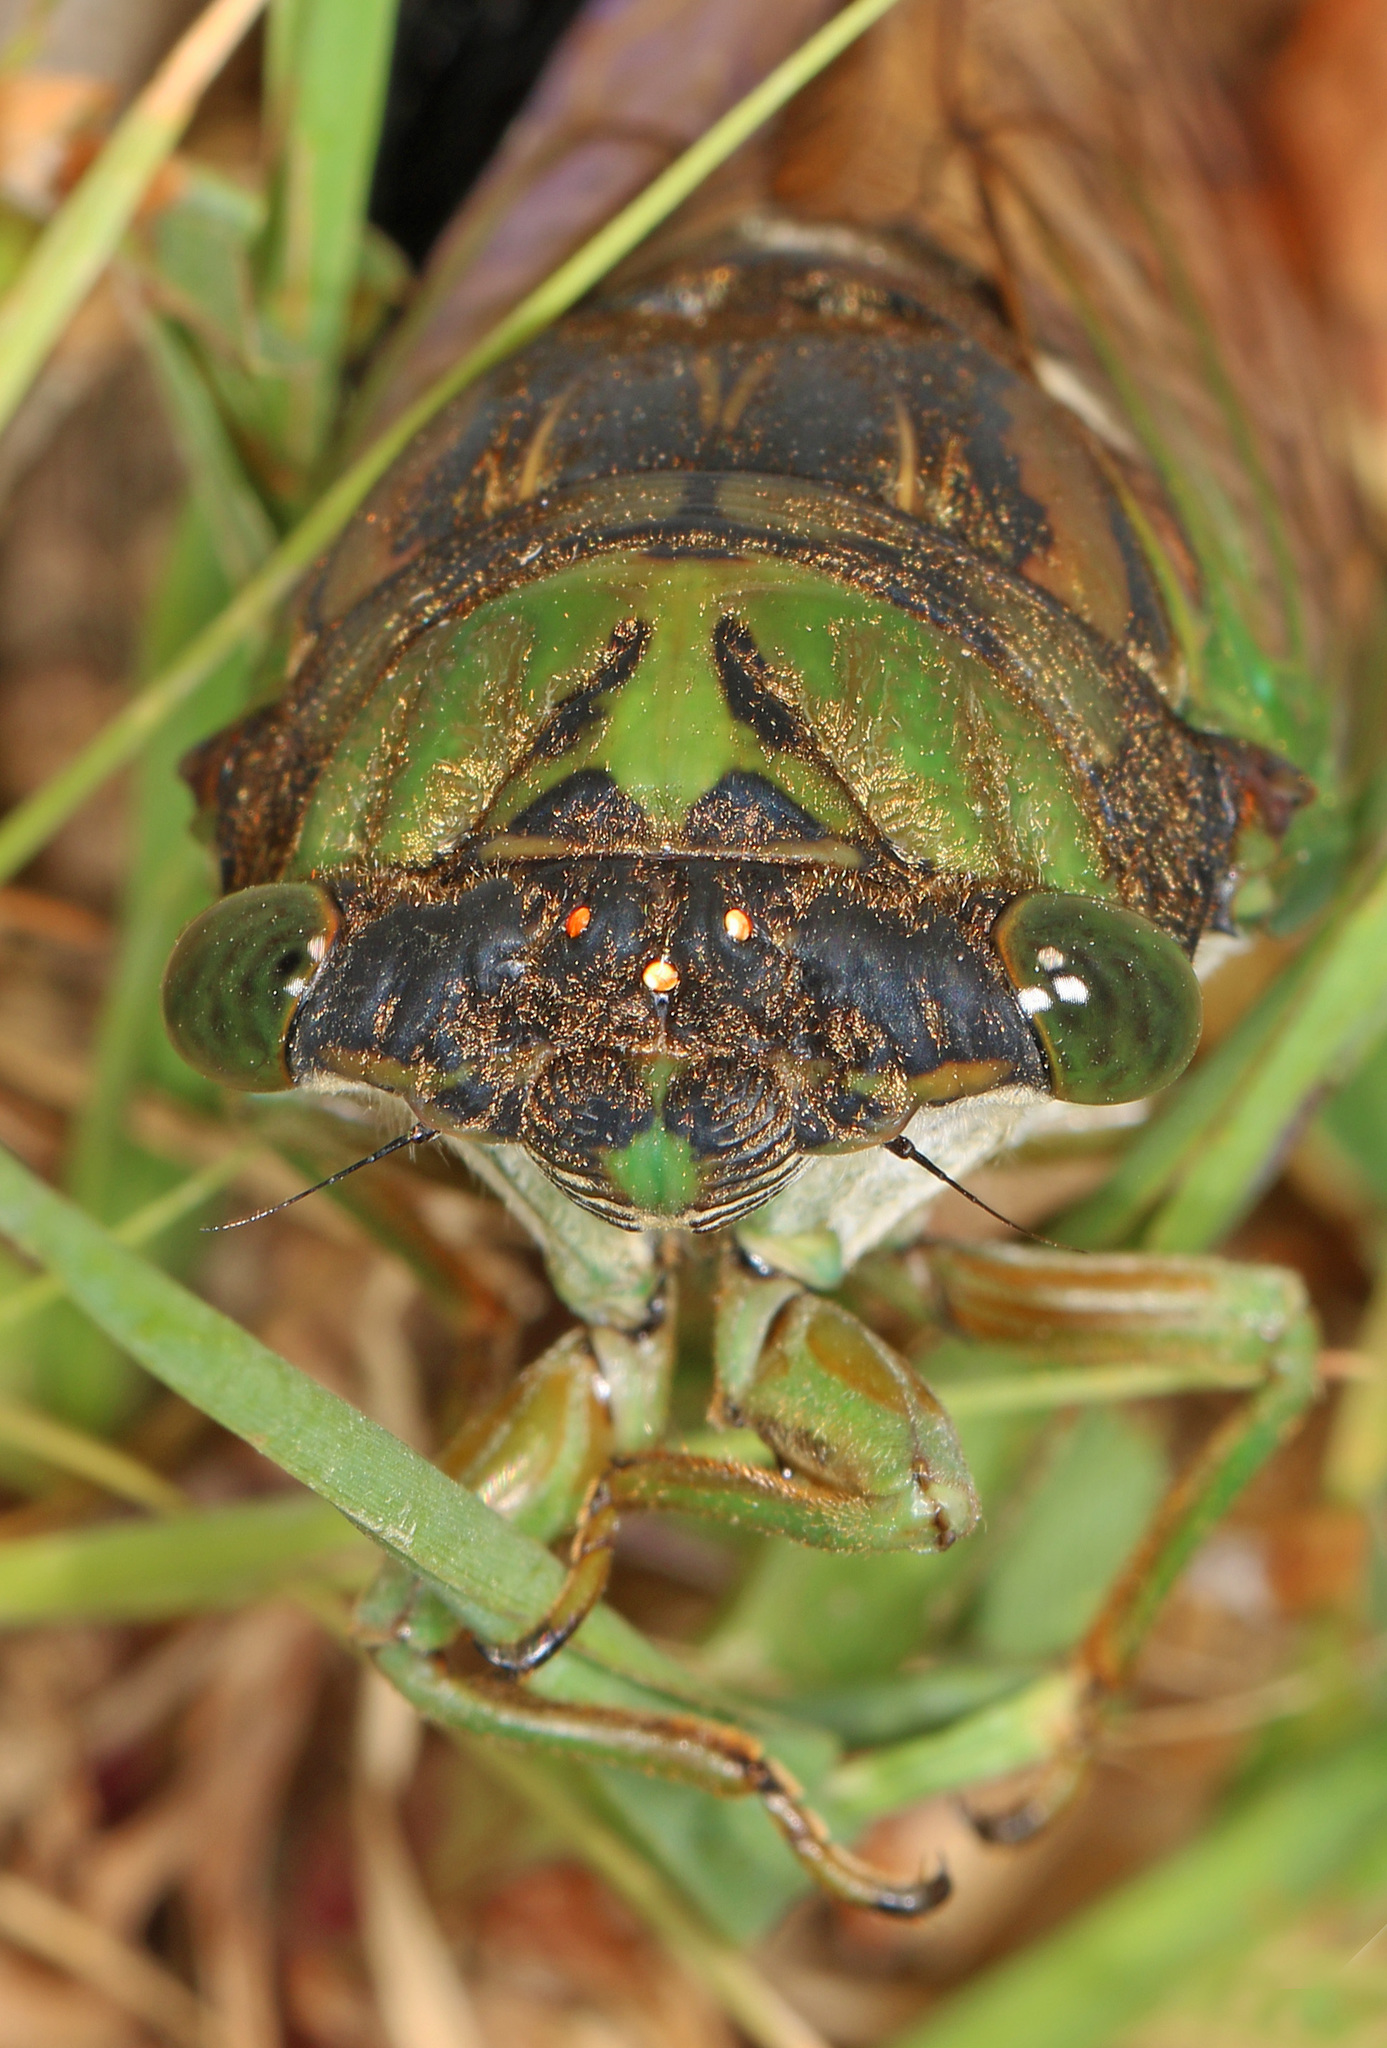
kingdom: Animalia
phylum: Arthropoda
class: Insecta
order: Hemiptera
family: Cicadidae
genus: Neotibicen
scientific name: Neotibicen tibicen
